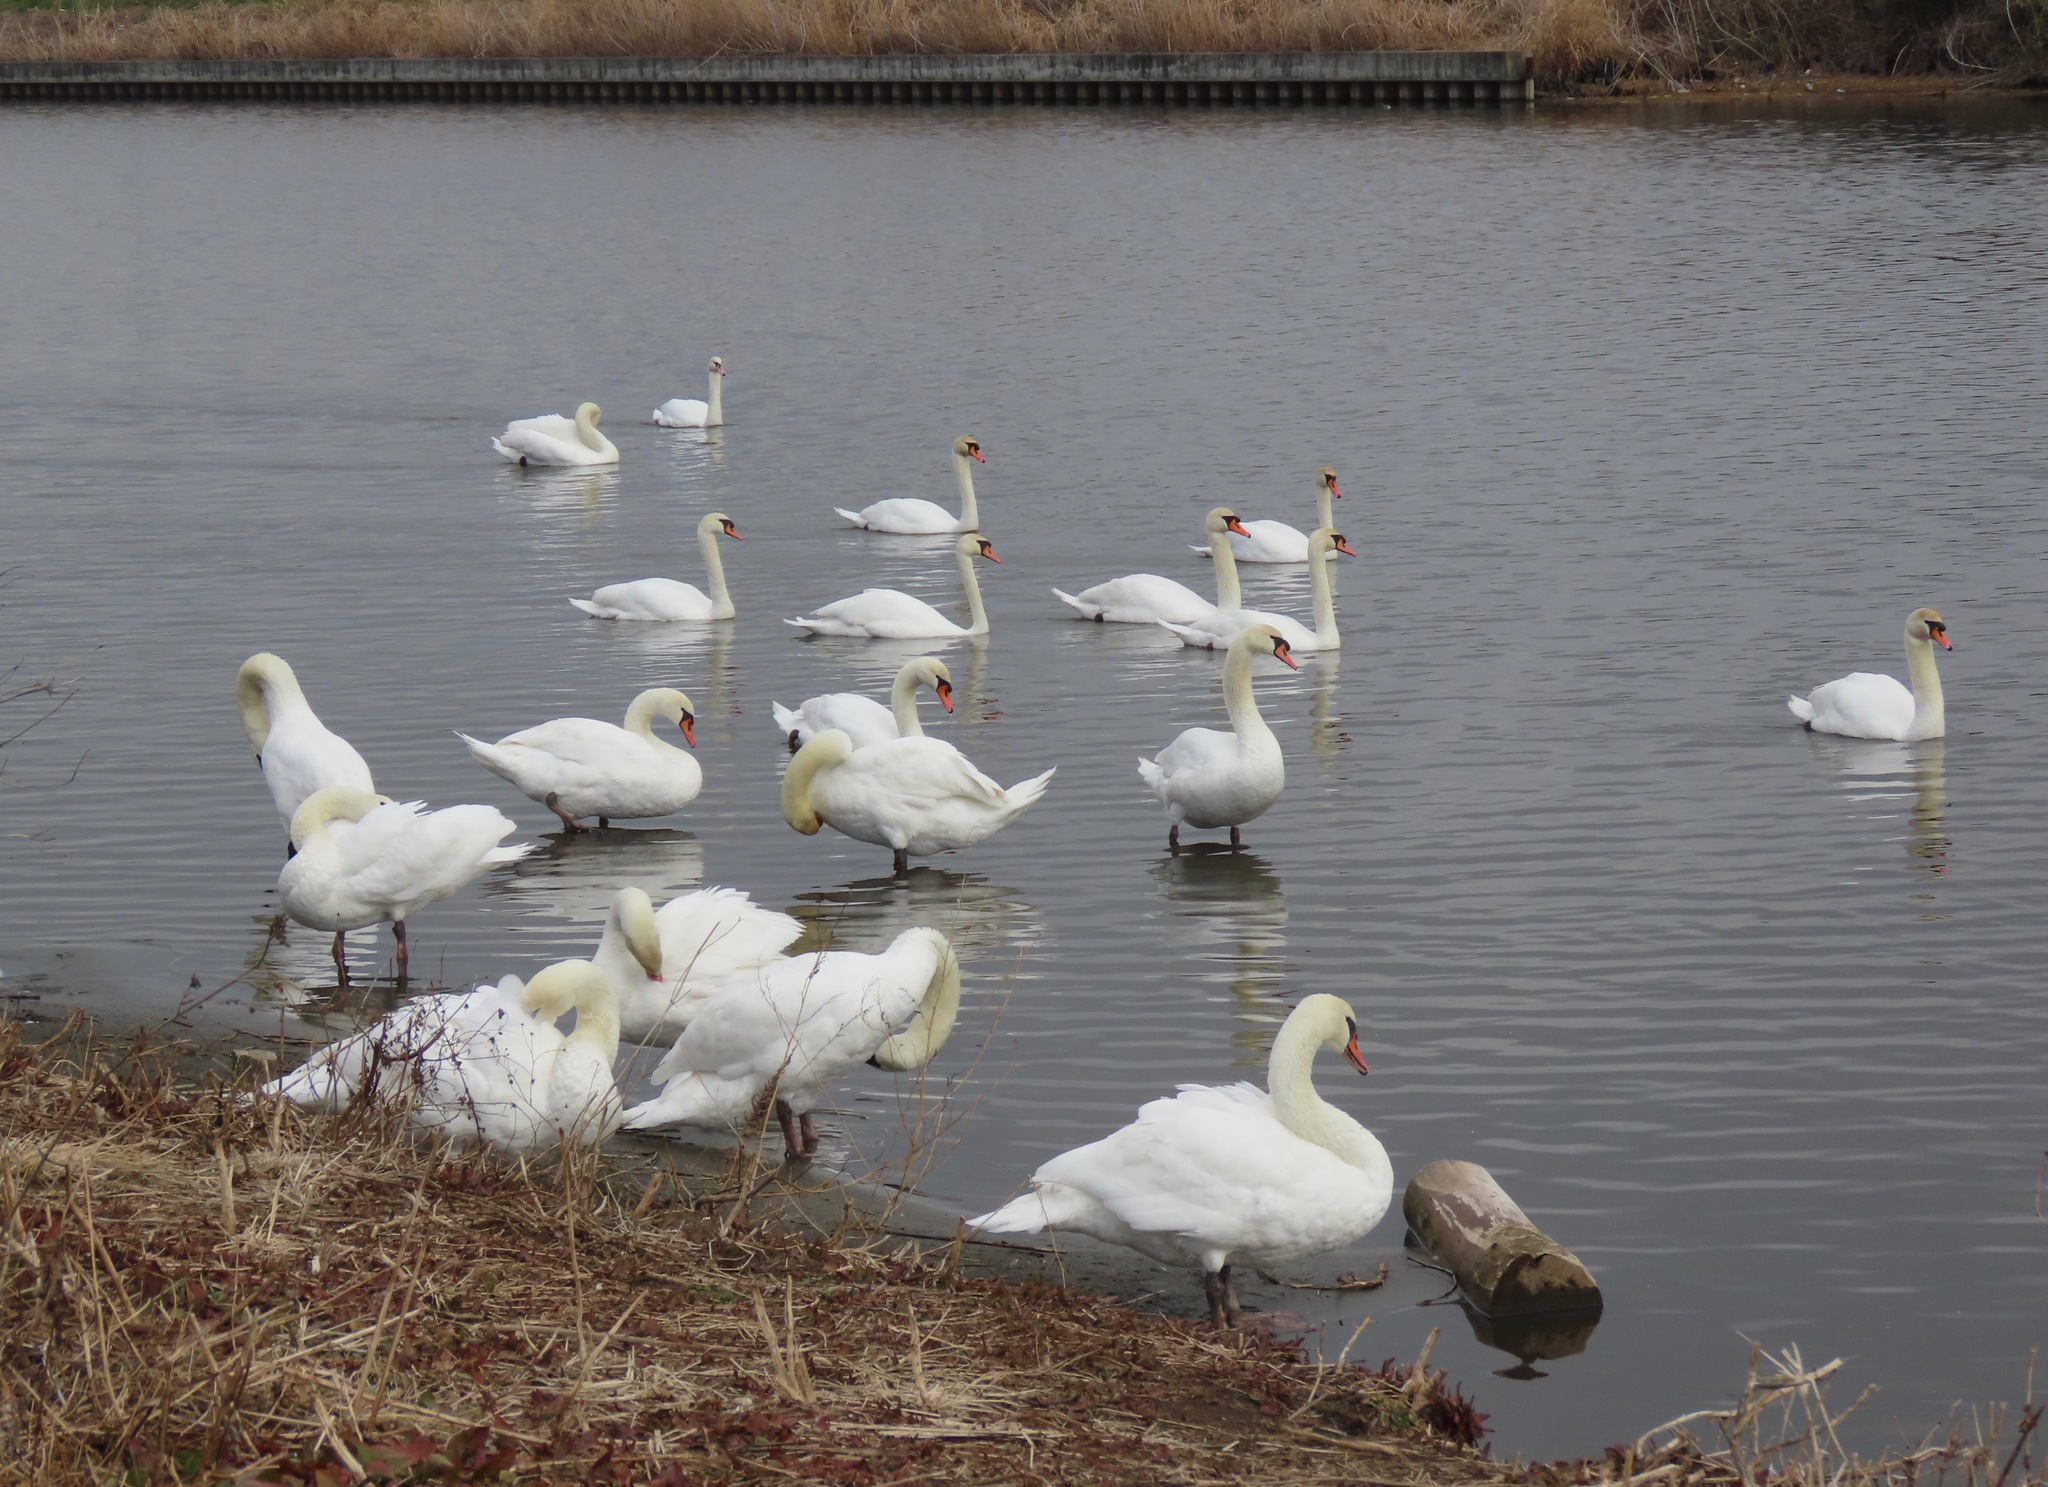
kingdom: Animalia
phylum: Chordata
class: Aves
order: Anseriformes
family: Anatidae
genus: Cygnus
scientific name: Cygnus olor
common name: Mute swan
